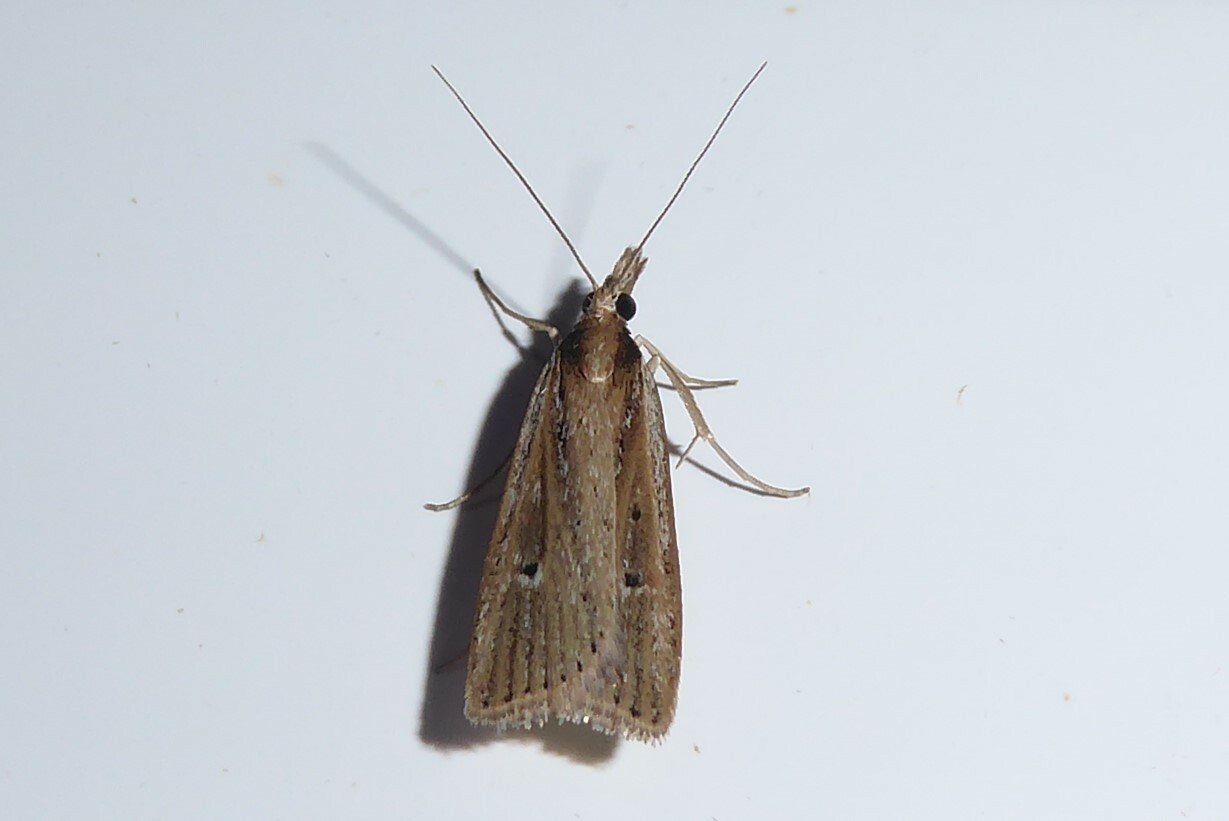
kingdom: Animalia
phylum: Arthropoda
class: Insecta
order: Lepidoptera
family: Crambidae
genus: Eudonia
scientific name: Eudonia sabulosella
